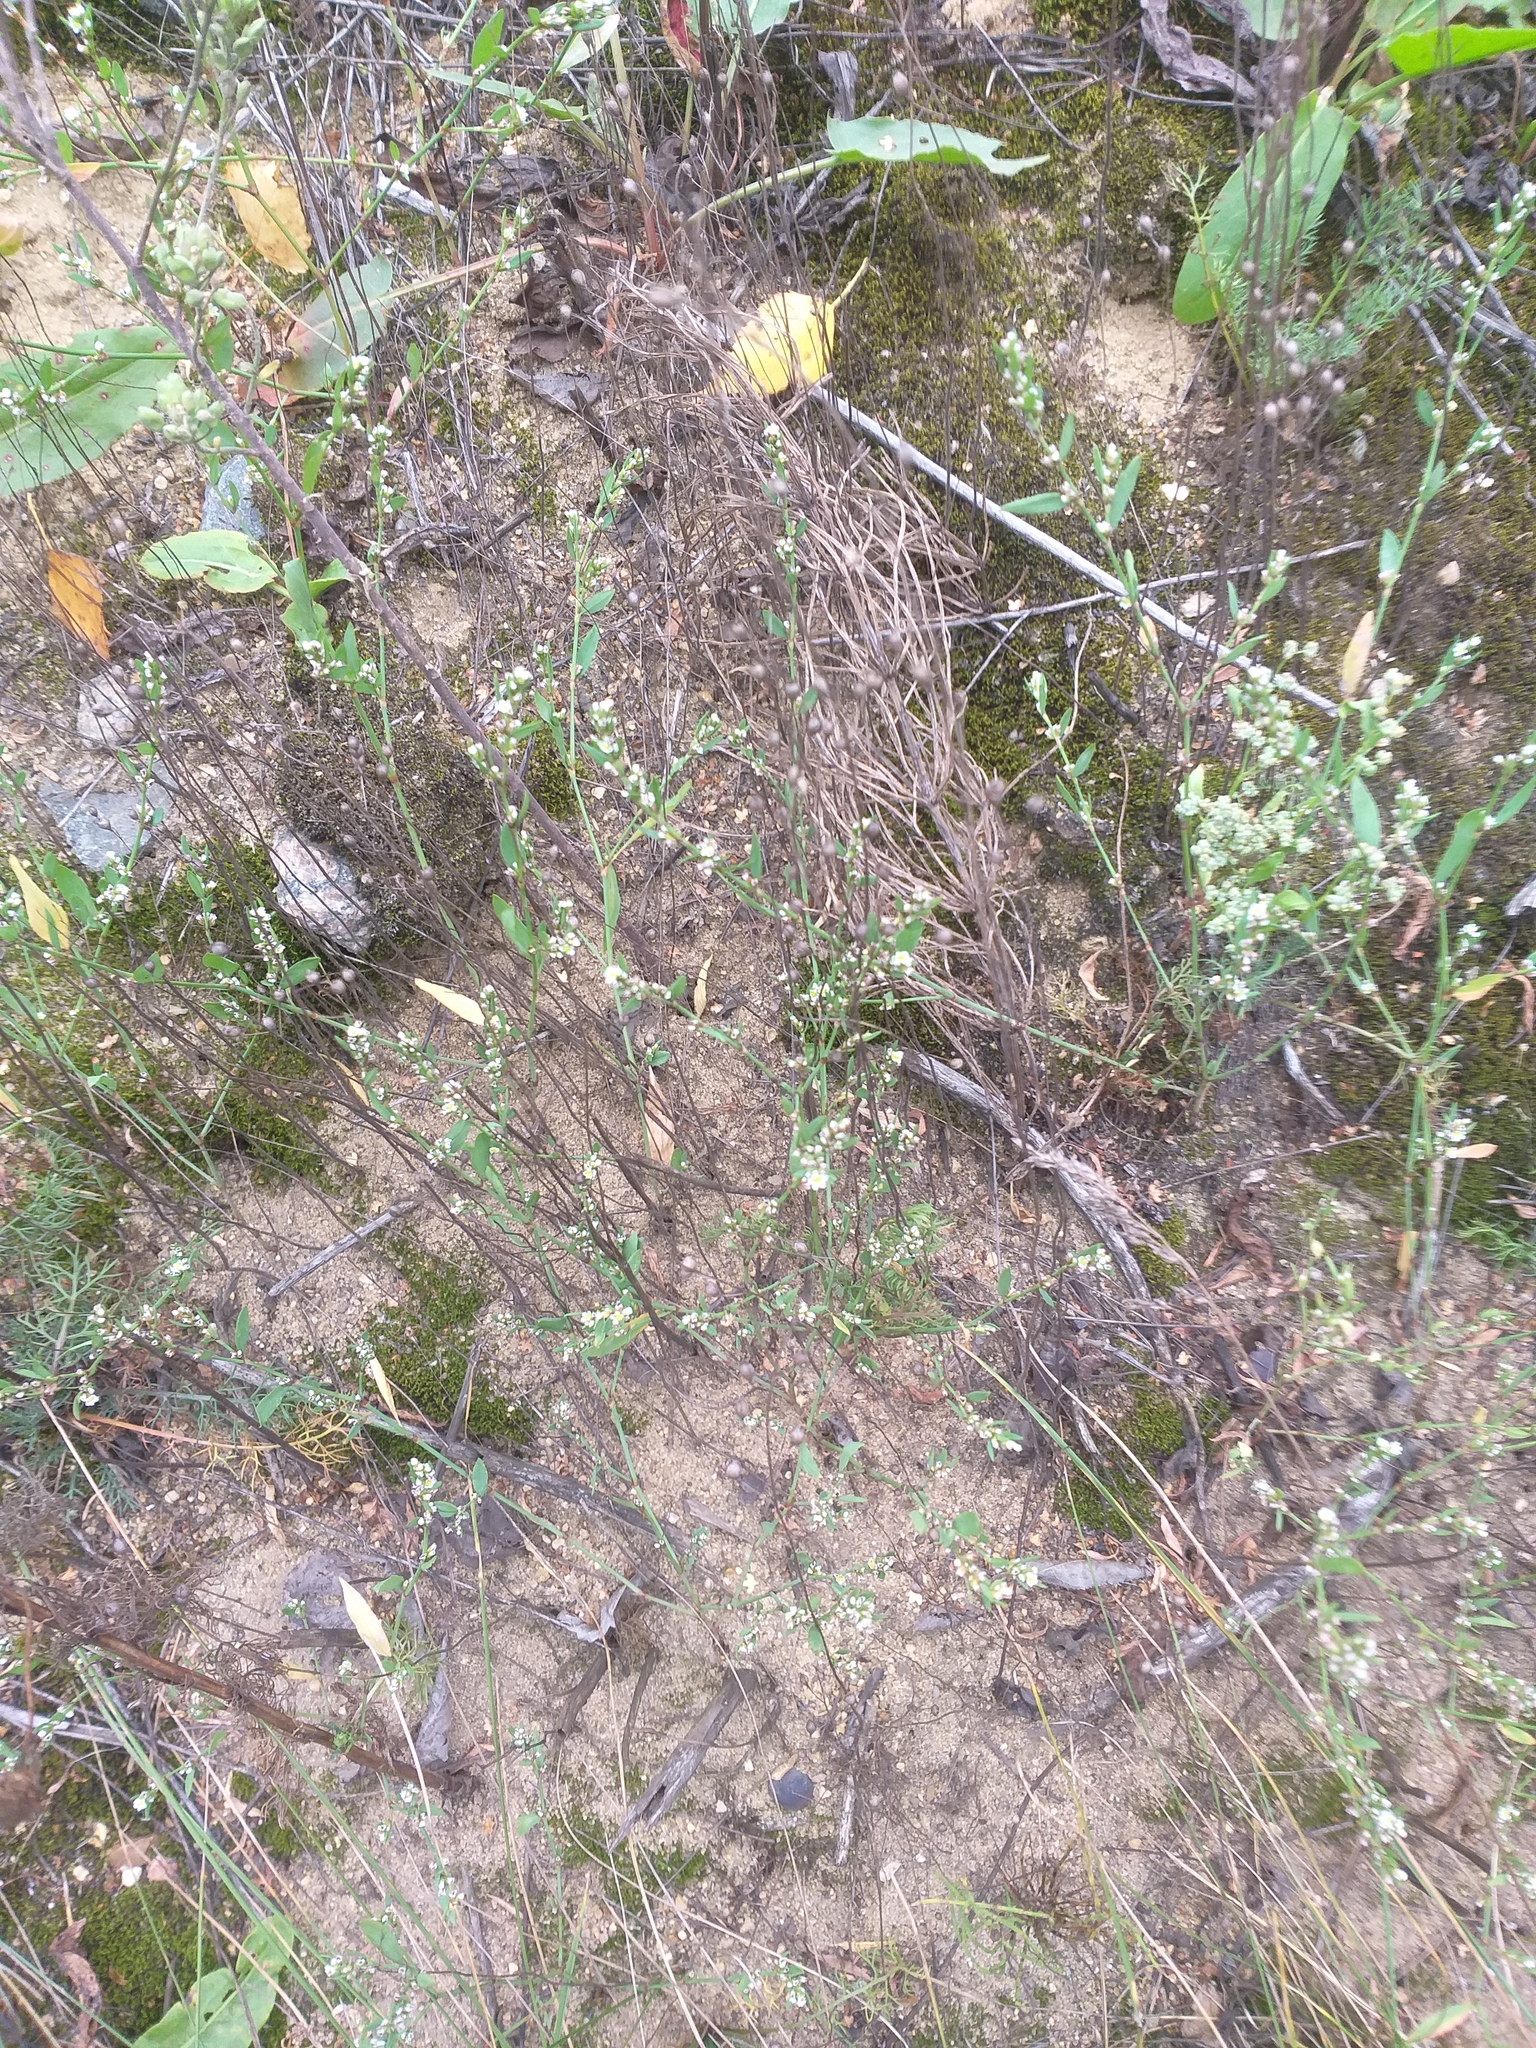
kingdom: Plantae
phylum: Tracheophyta
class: Magnoliopsida
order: Caryophyllales
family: Polygonaceae
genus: Polygonum
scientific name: Polygonum
